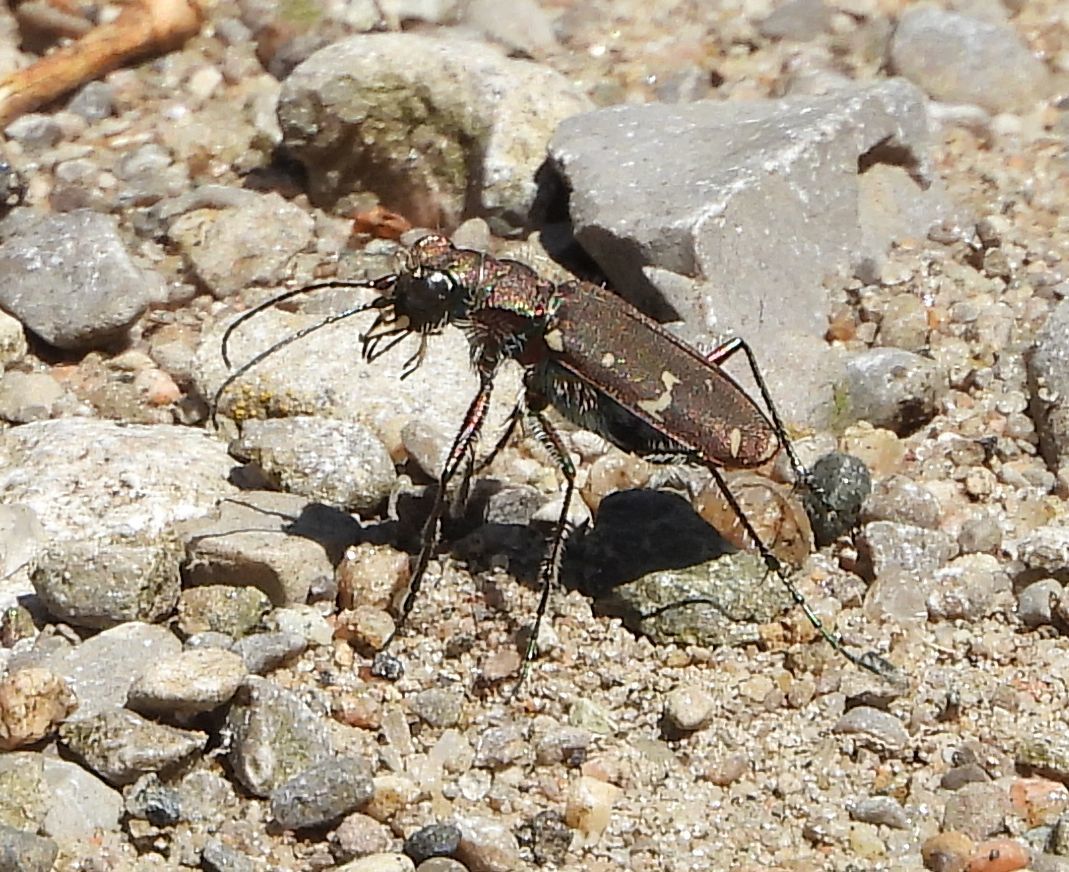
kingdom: Animalia
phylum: Arthropoda
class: Insecta
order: Coleoptera
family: Carabidae
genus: Cicindela
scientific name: Cicindela duodecimguttata
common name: Twelve-spotted tiger beetle
